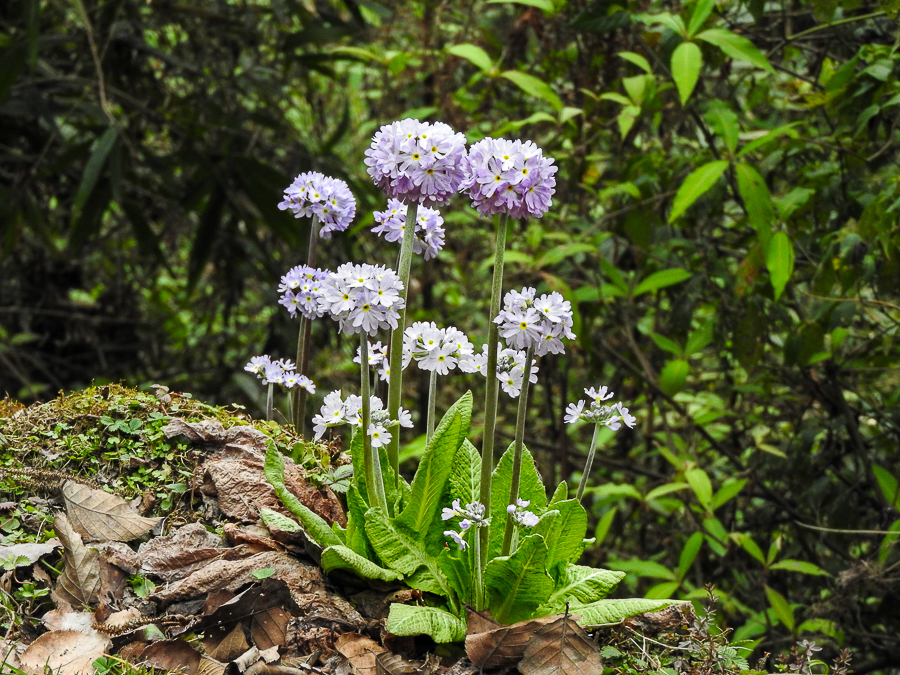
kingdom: Plantae
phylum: Tracheophyta
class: Magnoliopsida
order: Ericales
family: Primulaceae
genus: Primula
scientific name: Primula denticulata
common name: Drumstick primula
